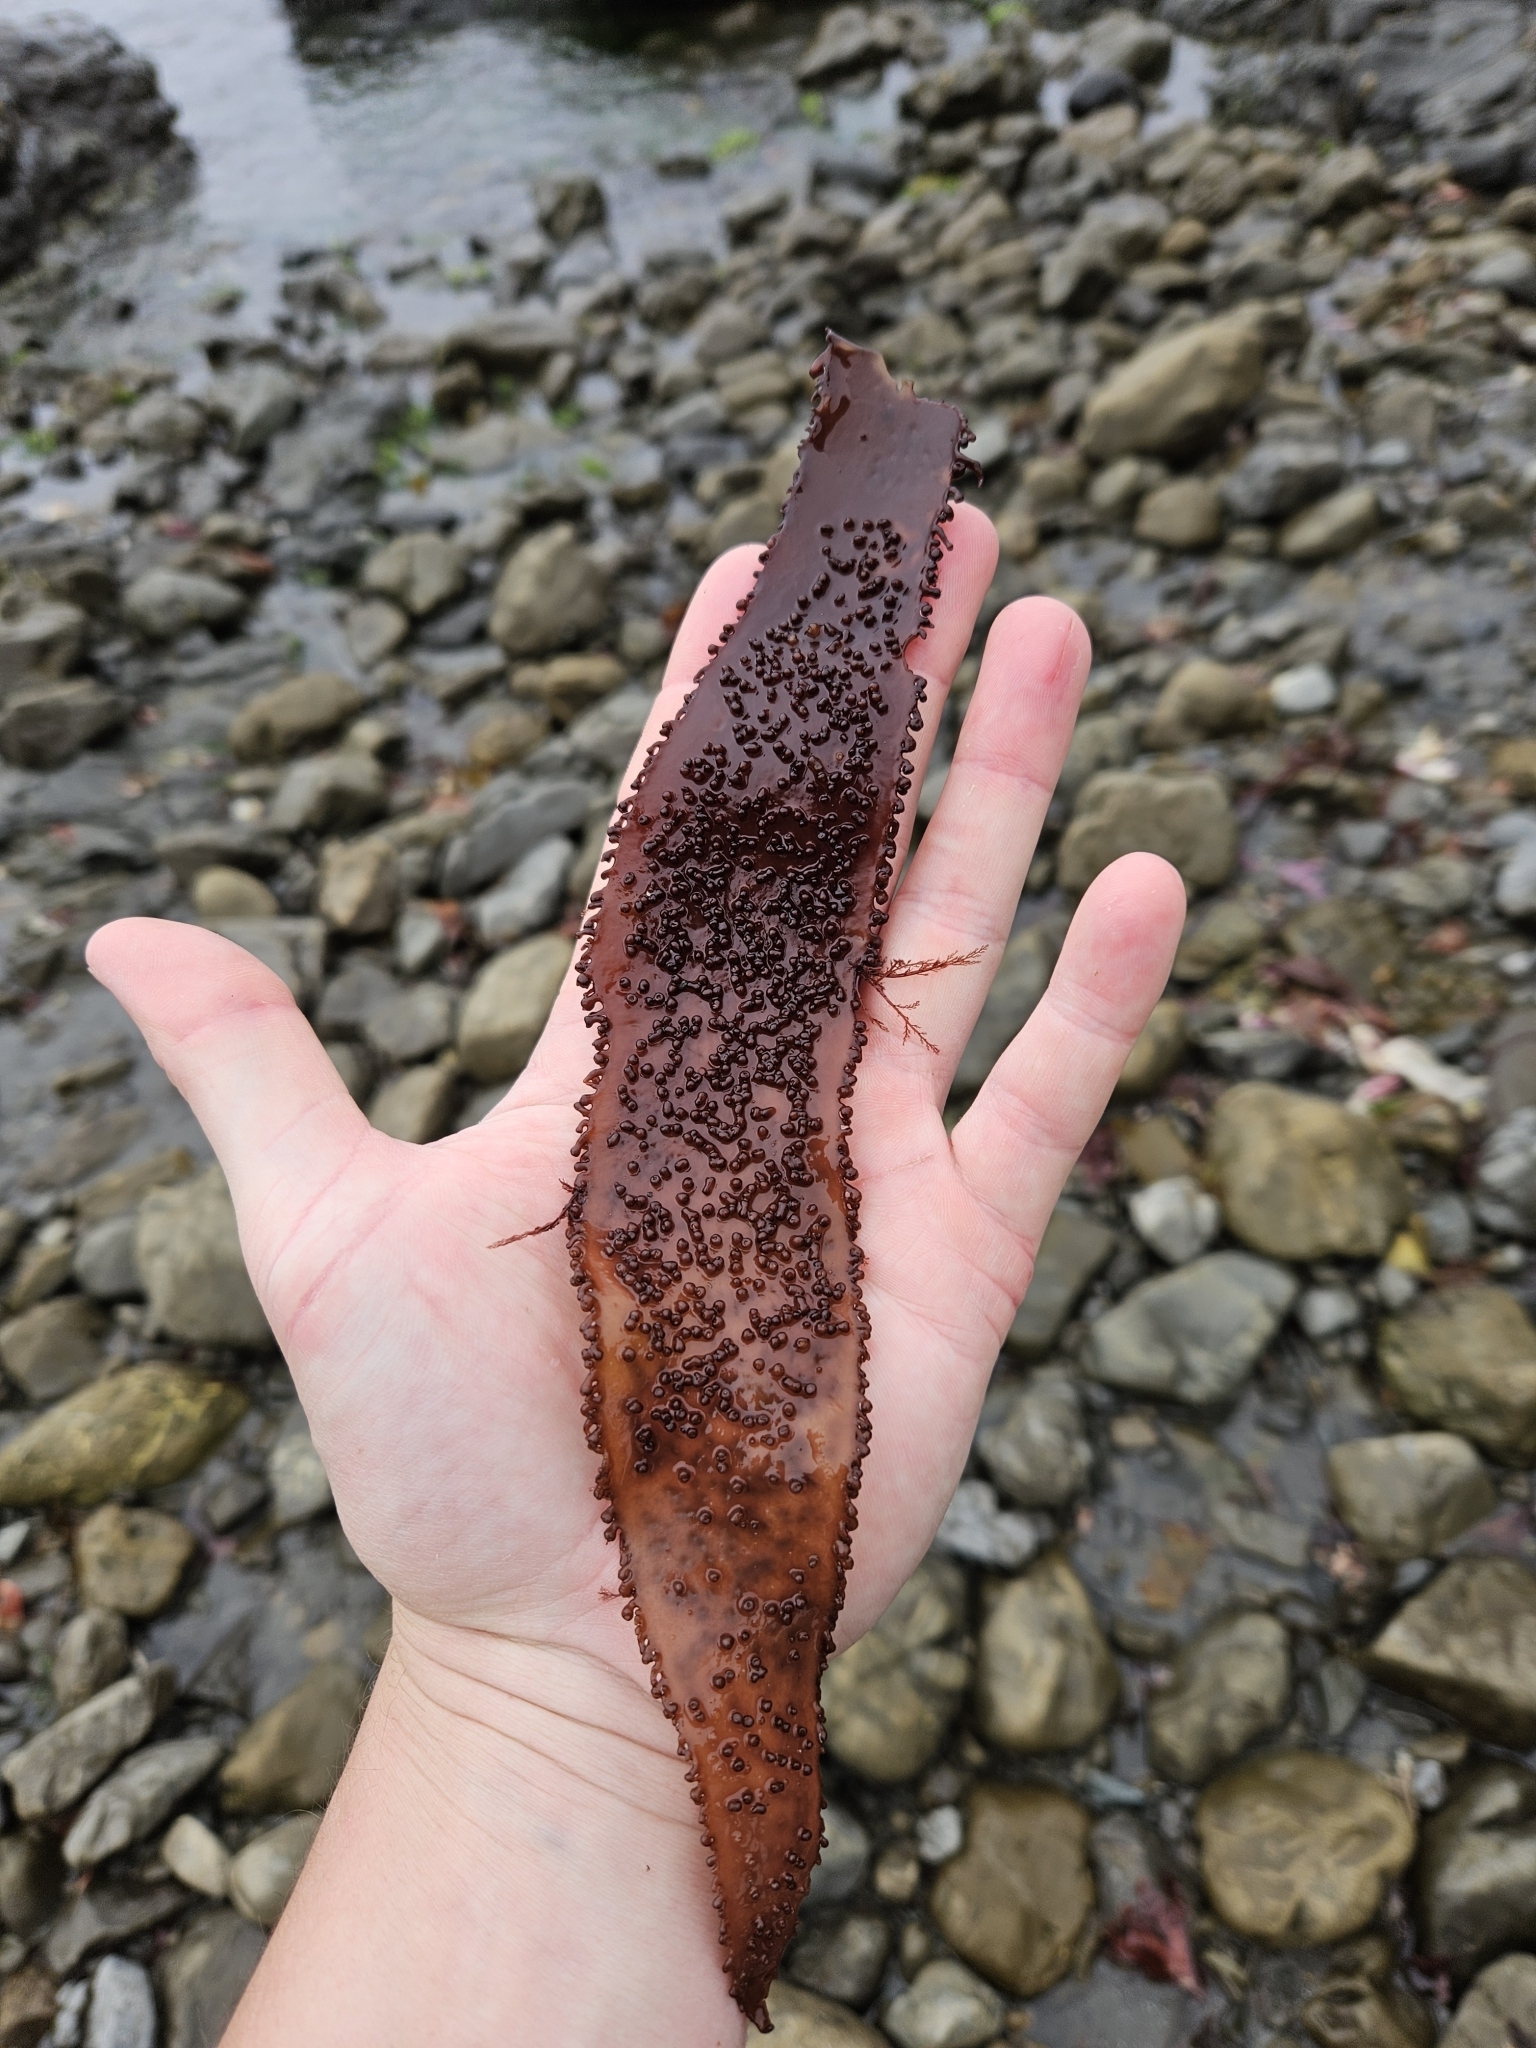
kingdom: Plantae
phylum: Rhodophyta
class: Florideophyceae
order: Gigartinales
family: Gigartinaceae
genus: Sarcothalia
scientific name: Sarcothalia radula
